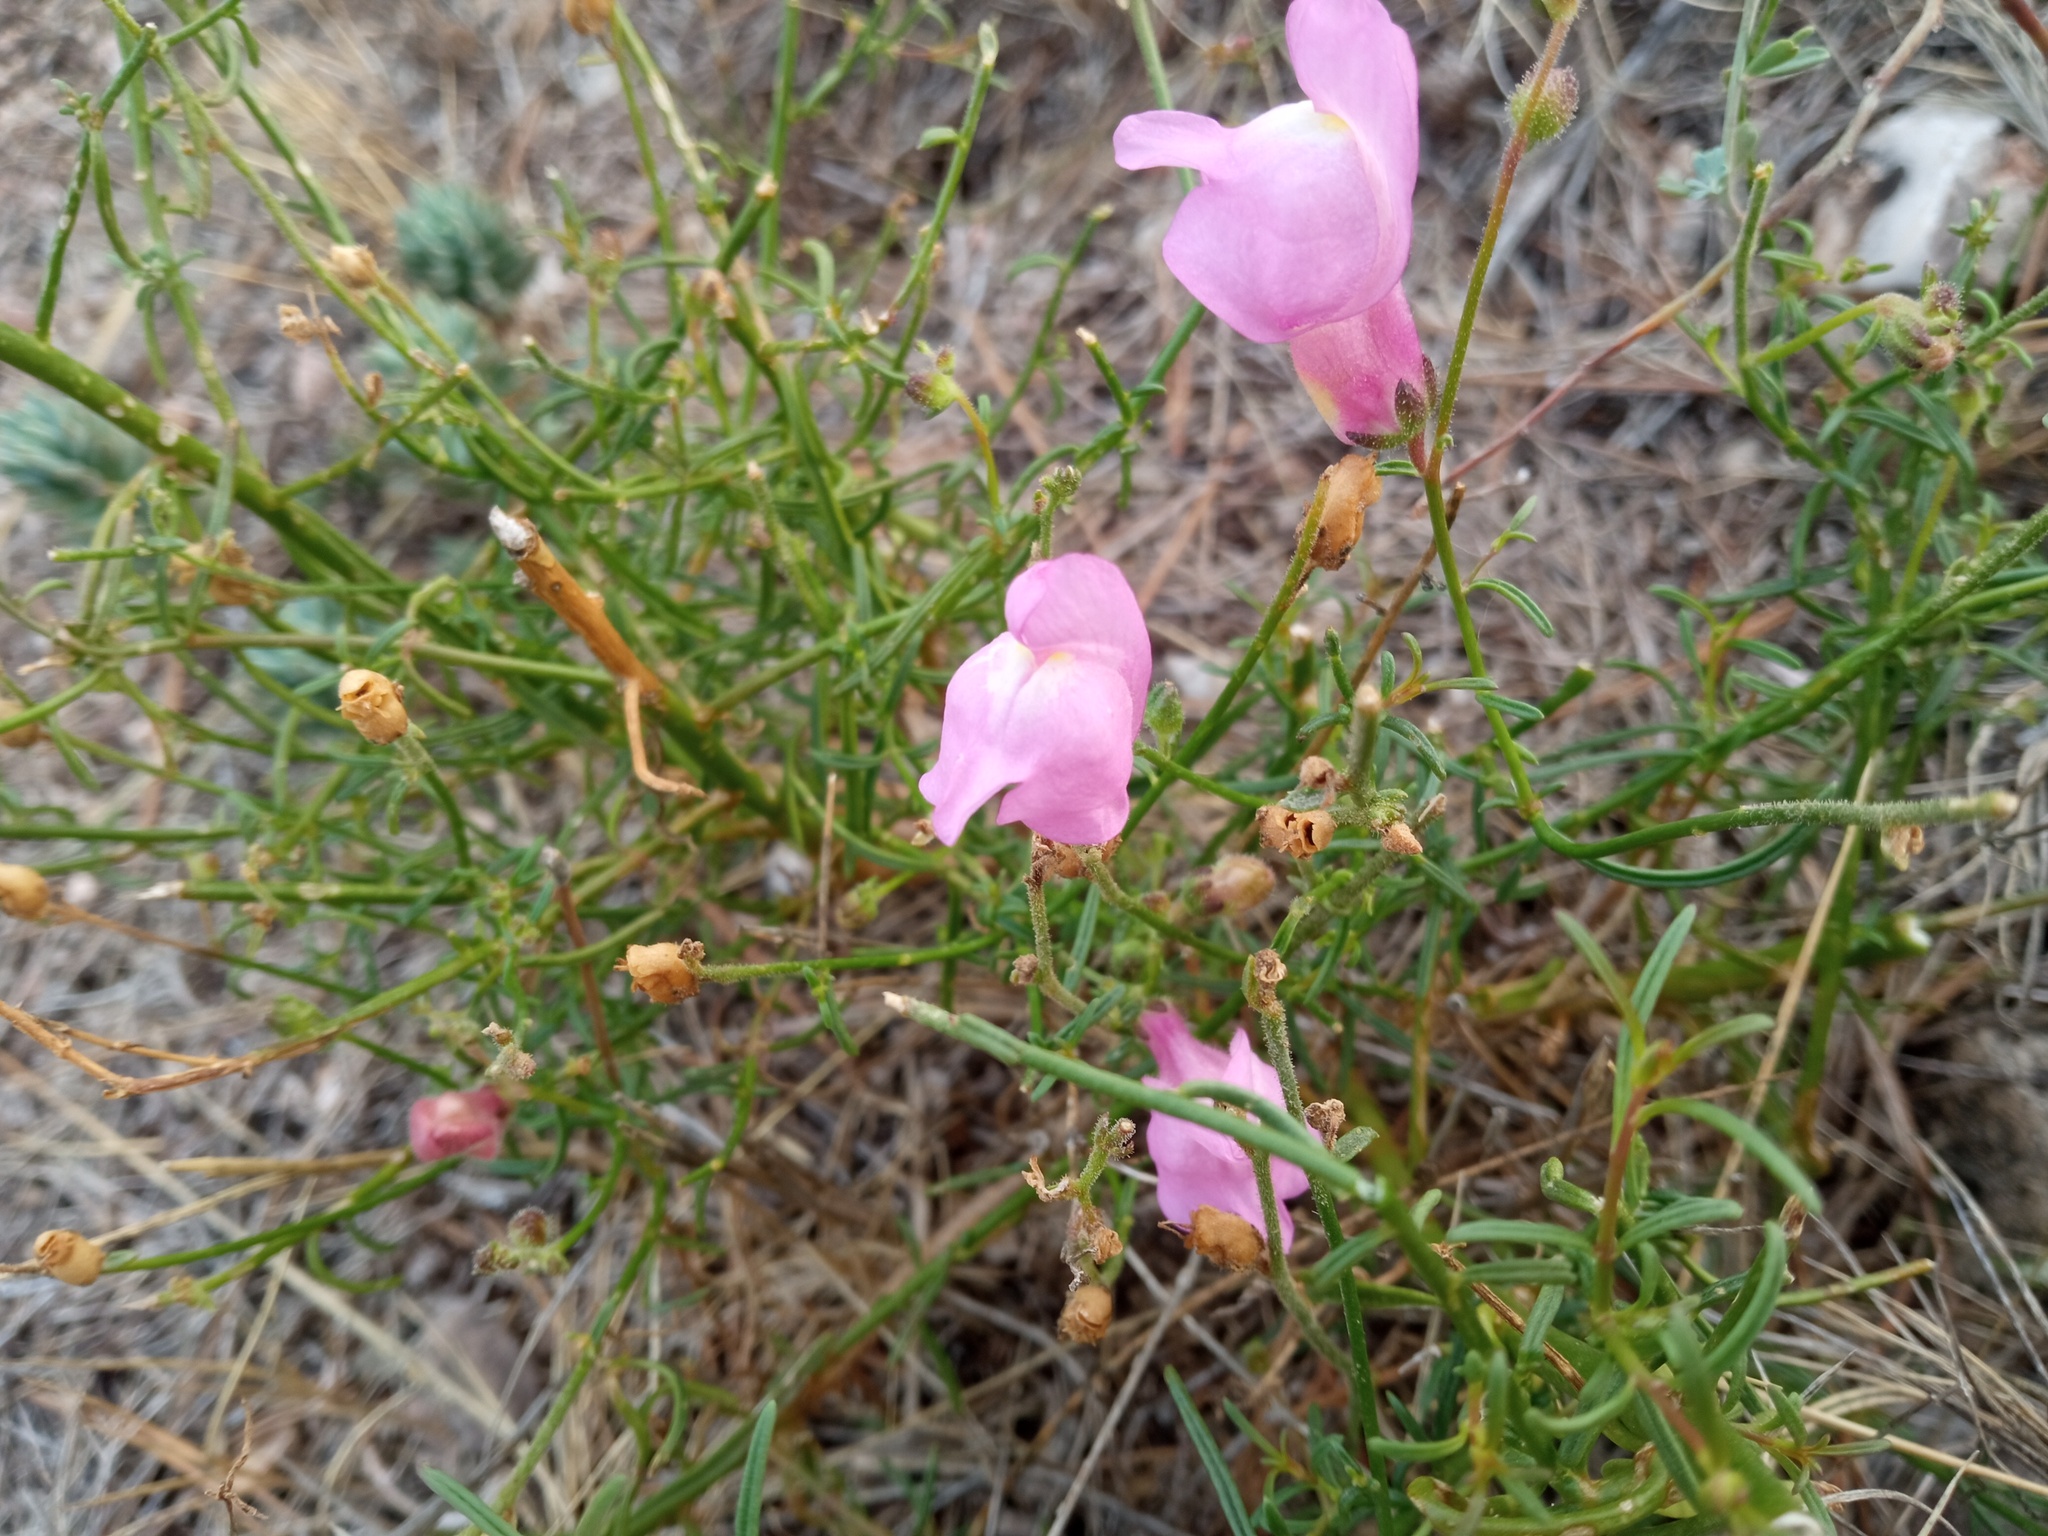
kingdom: Plantae
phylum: Tracheophyta
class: Magnoliopsida
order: Lamiales
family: Plantaginaceae
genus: Antirrhinum
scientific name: Antirrhinum litigiosum
